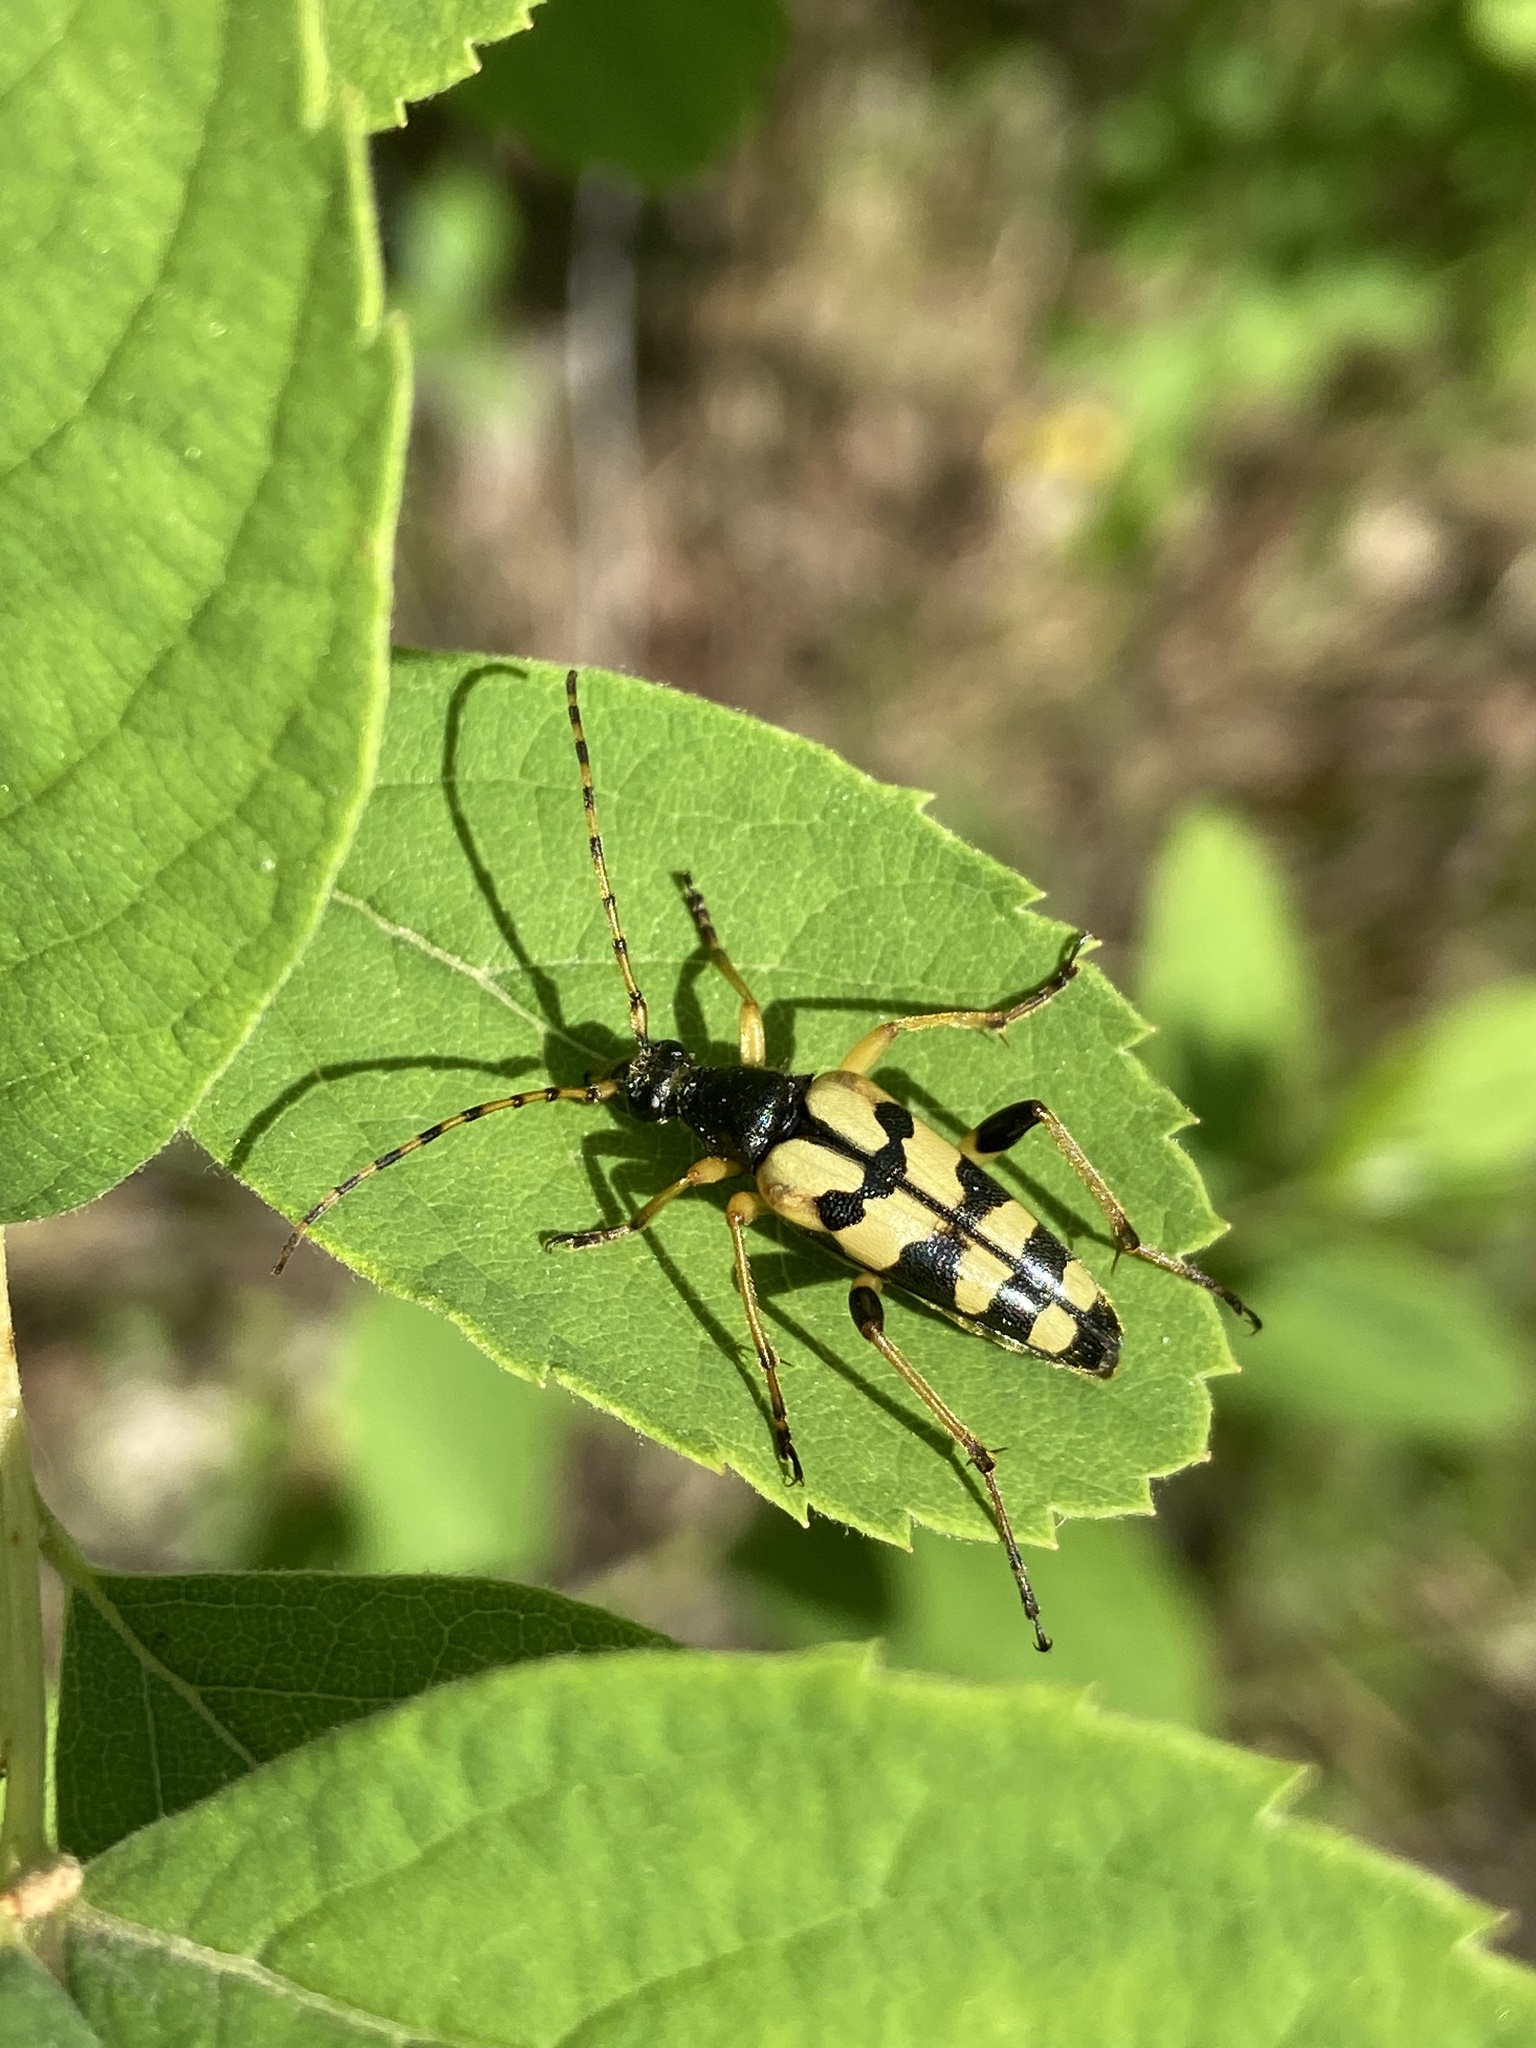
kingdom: Animalia
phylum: Arthropoda
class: Insecta
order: Coleoptera
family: Cerambycidae
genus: Rutpela
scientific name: Rutpela maculata
